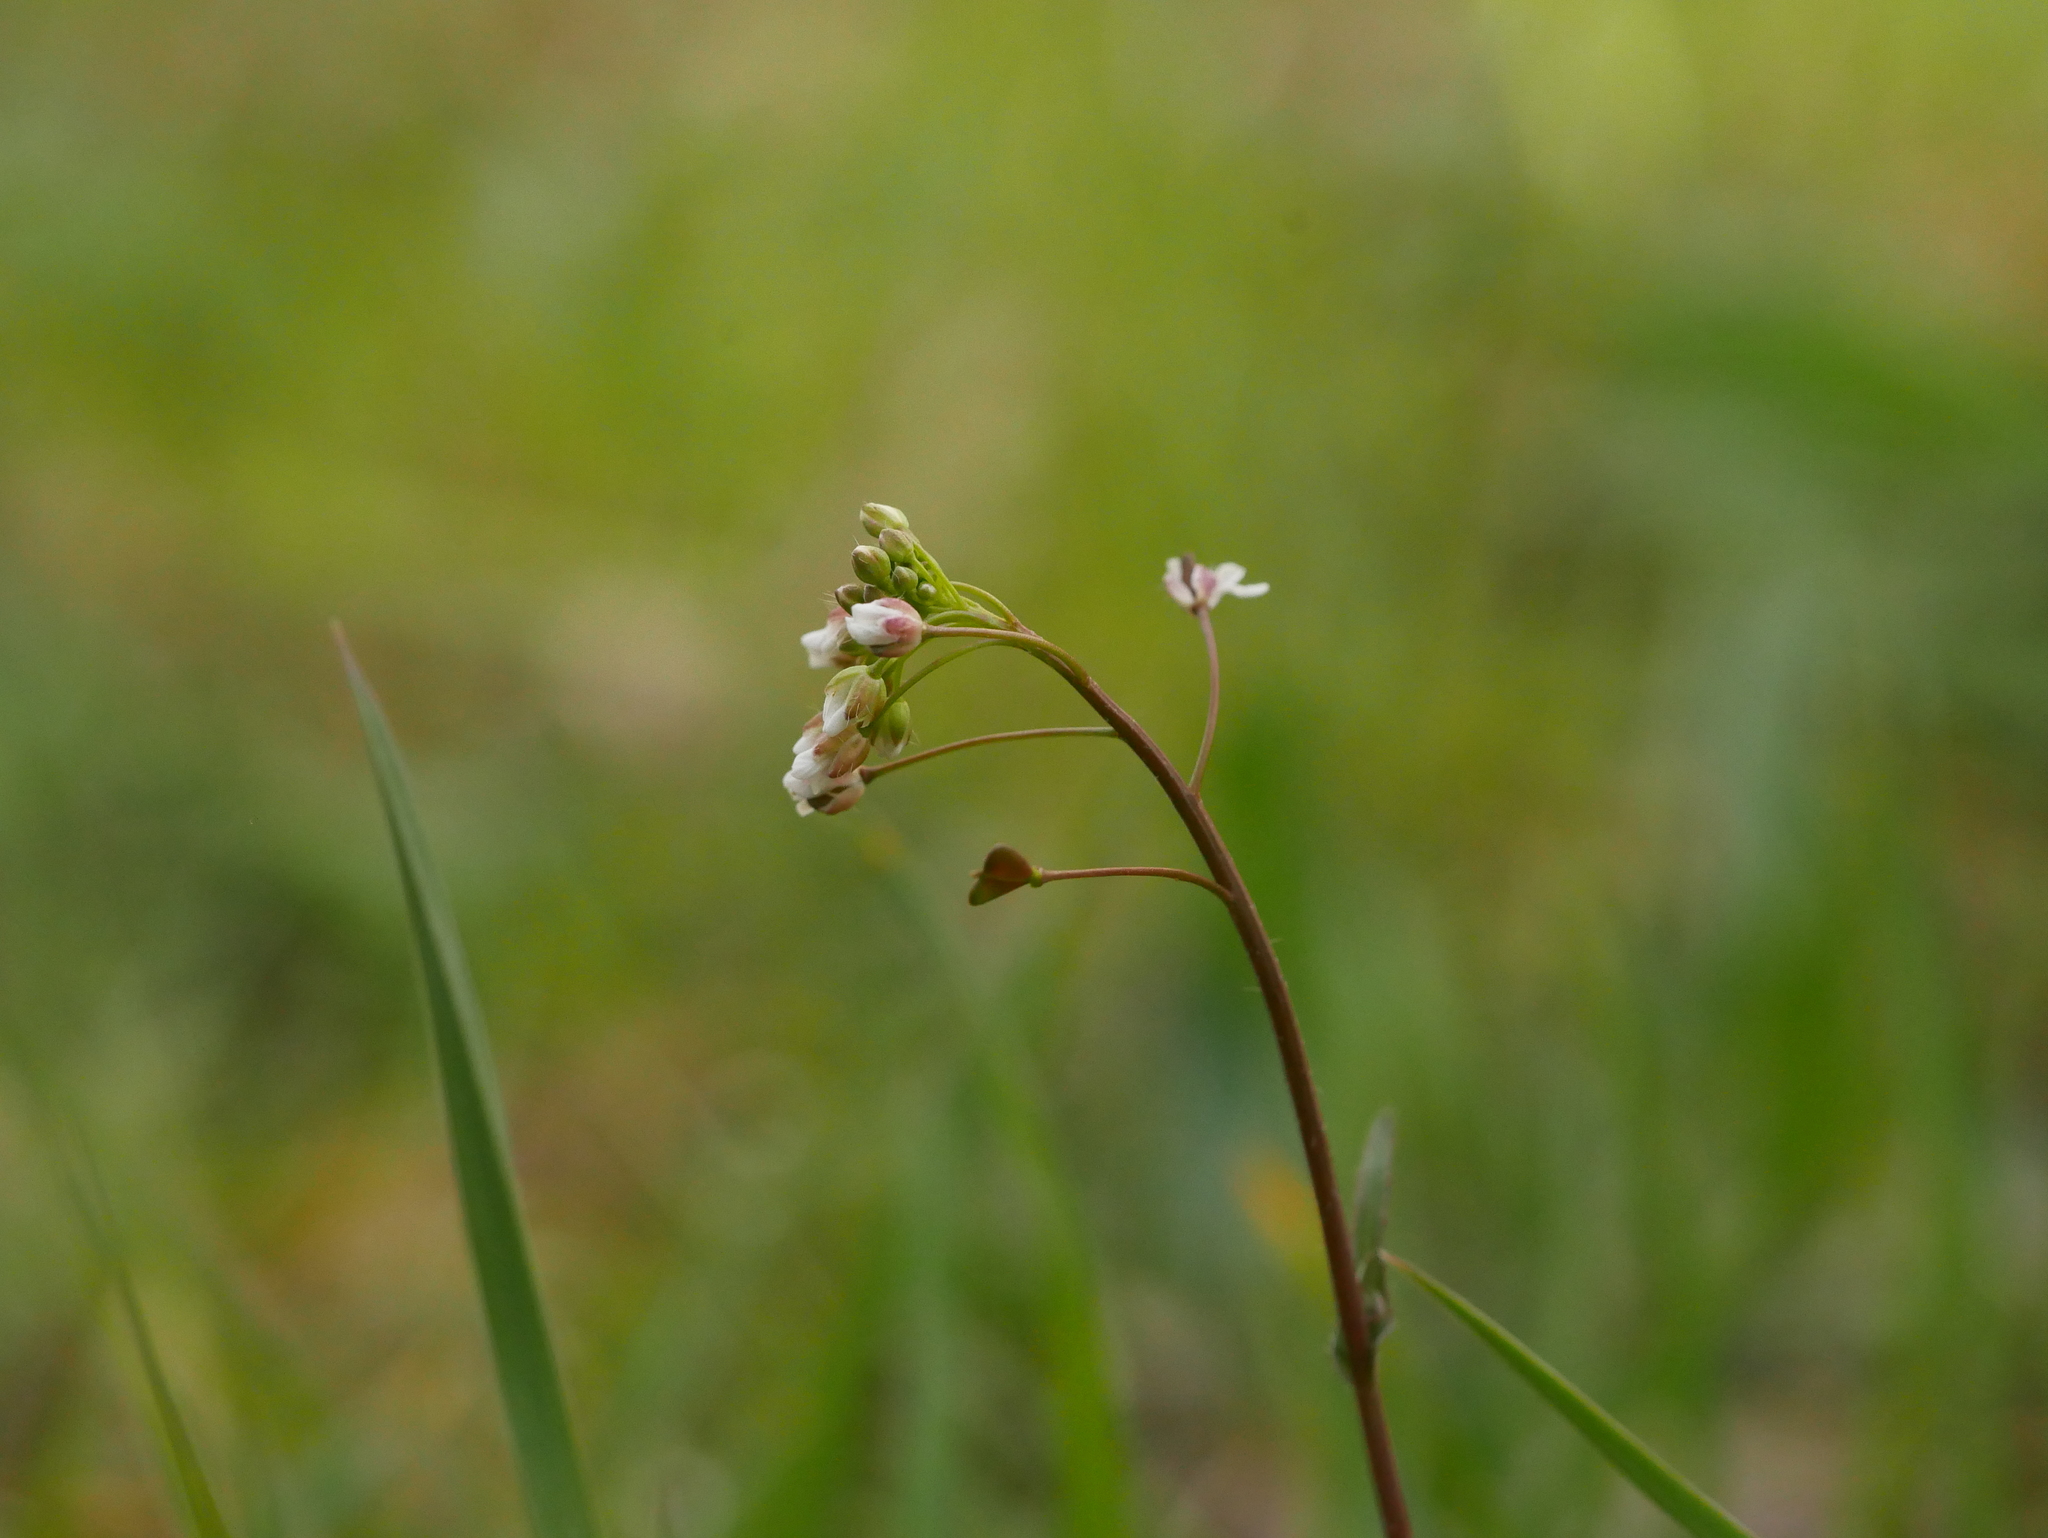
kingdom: Plantae
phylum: Tracheophyta
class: Magnoliopsida
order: Brassicales
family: Brassicaceae
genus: Capsella
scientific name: Capsella bursa-pastoris
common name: Shepherd's purse
